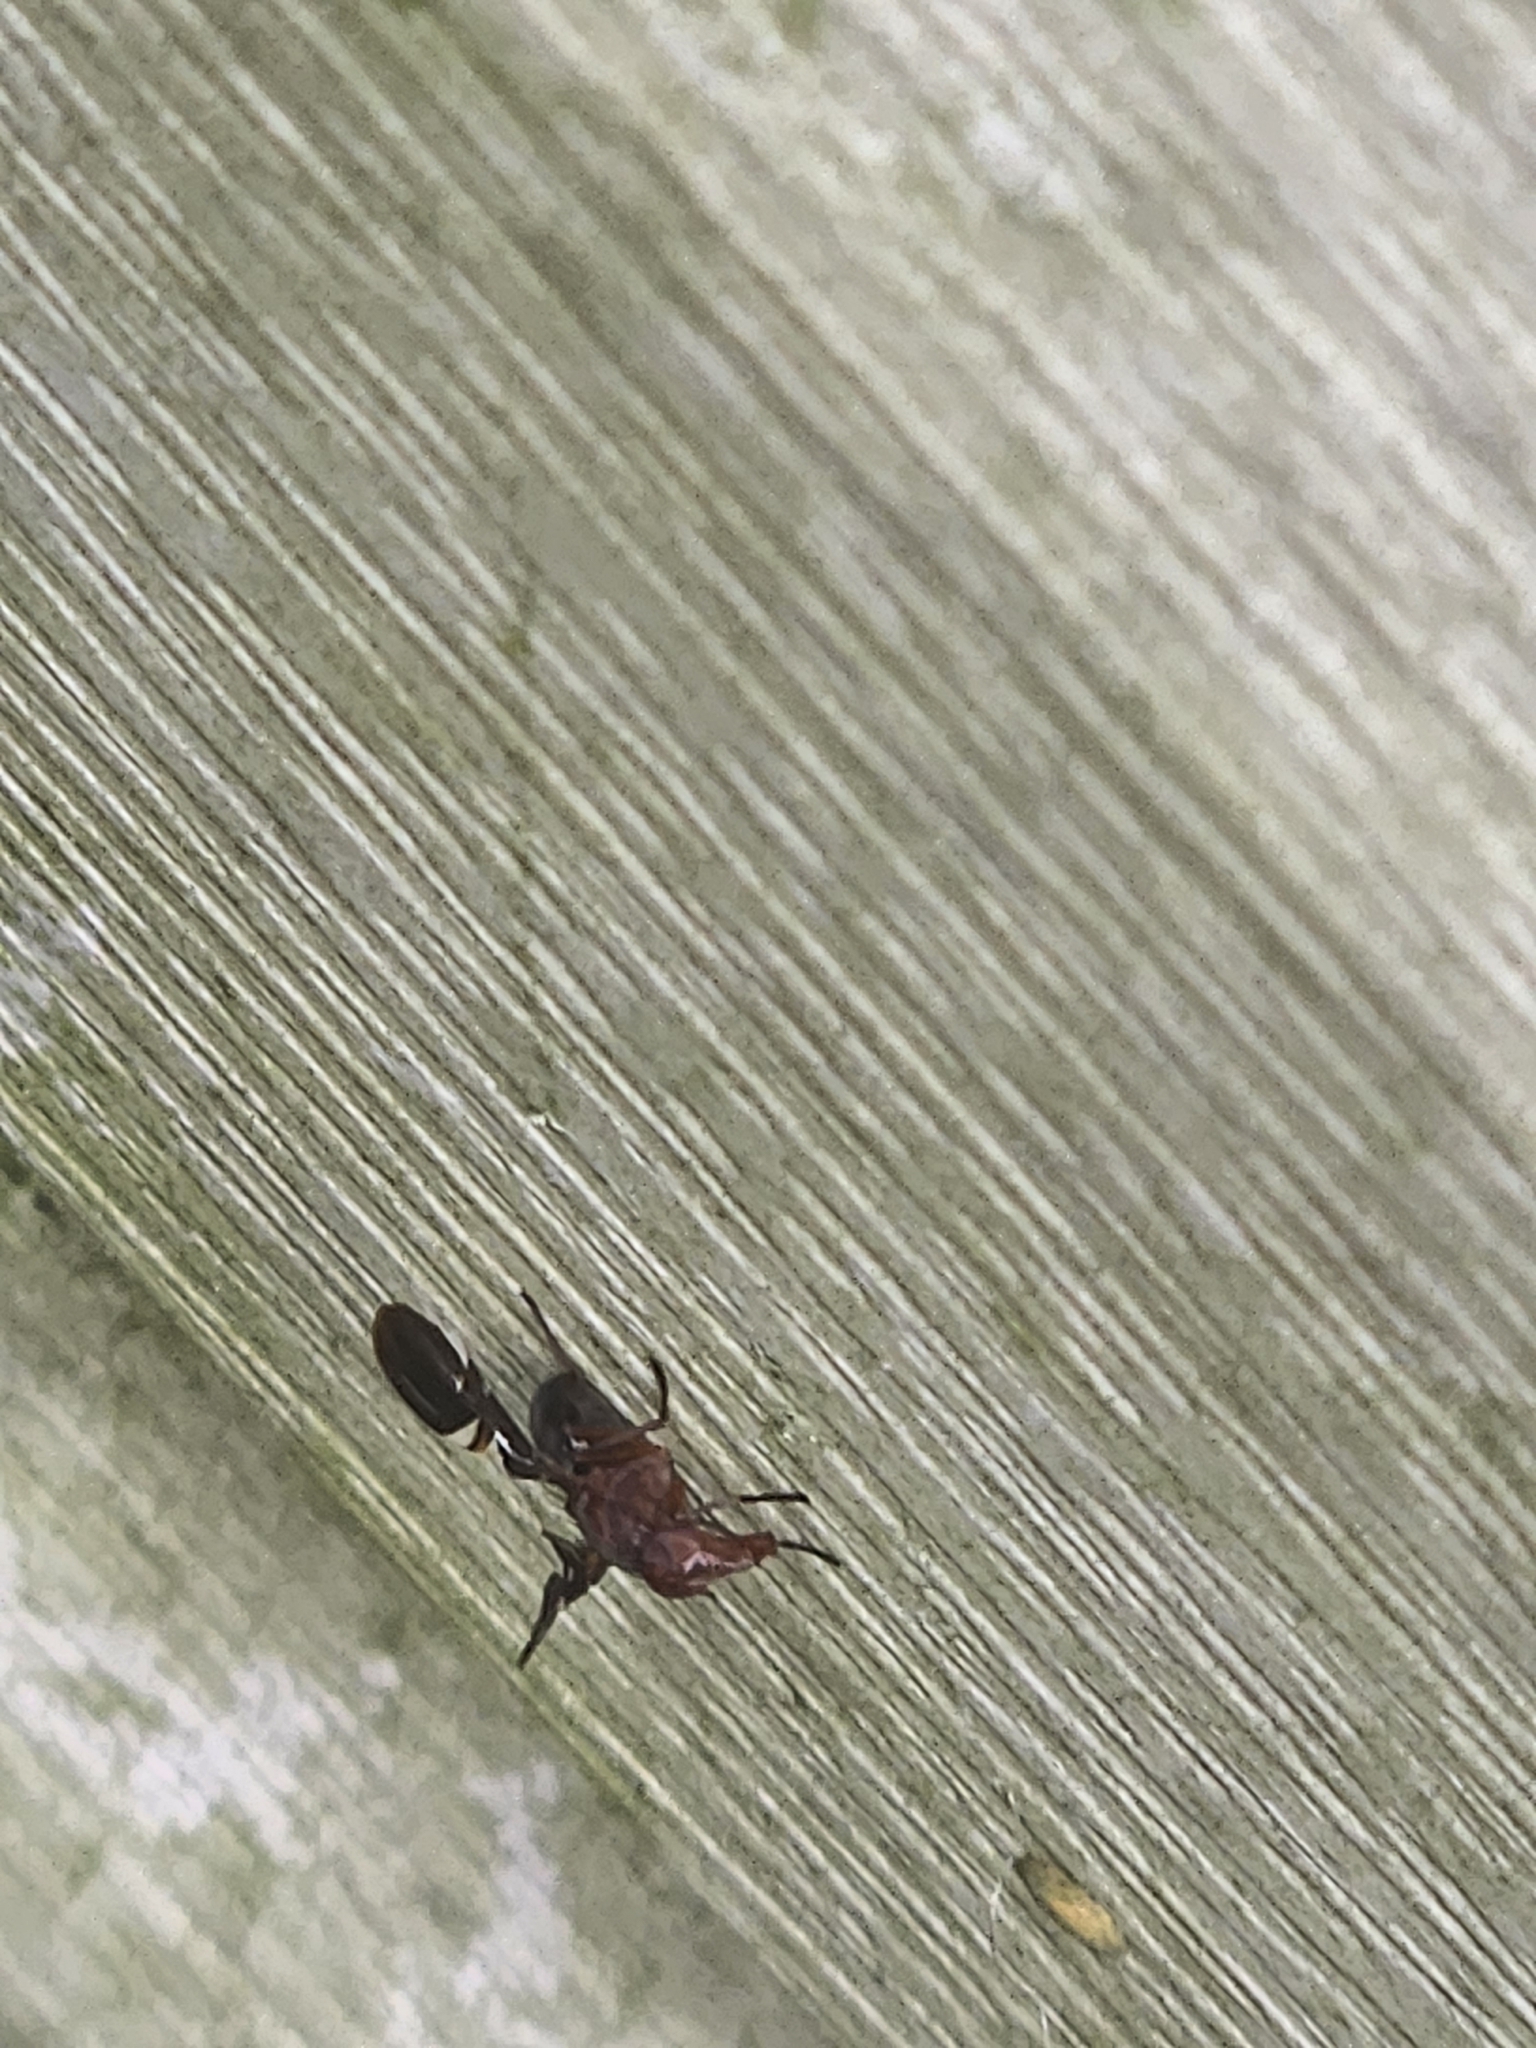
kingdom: Animalia
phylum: Arthropoda
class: Insecta
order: Diptera
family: Ulidiidae
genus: Delphinia
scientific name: Delphinia picta
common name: Common picture-winged fly
